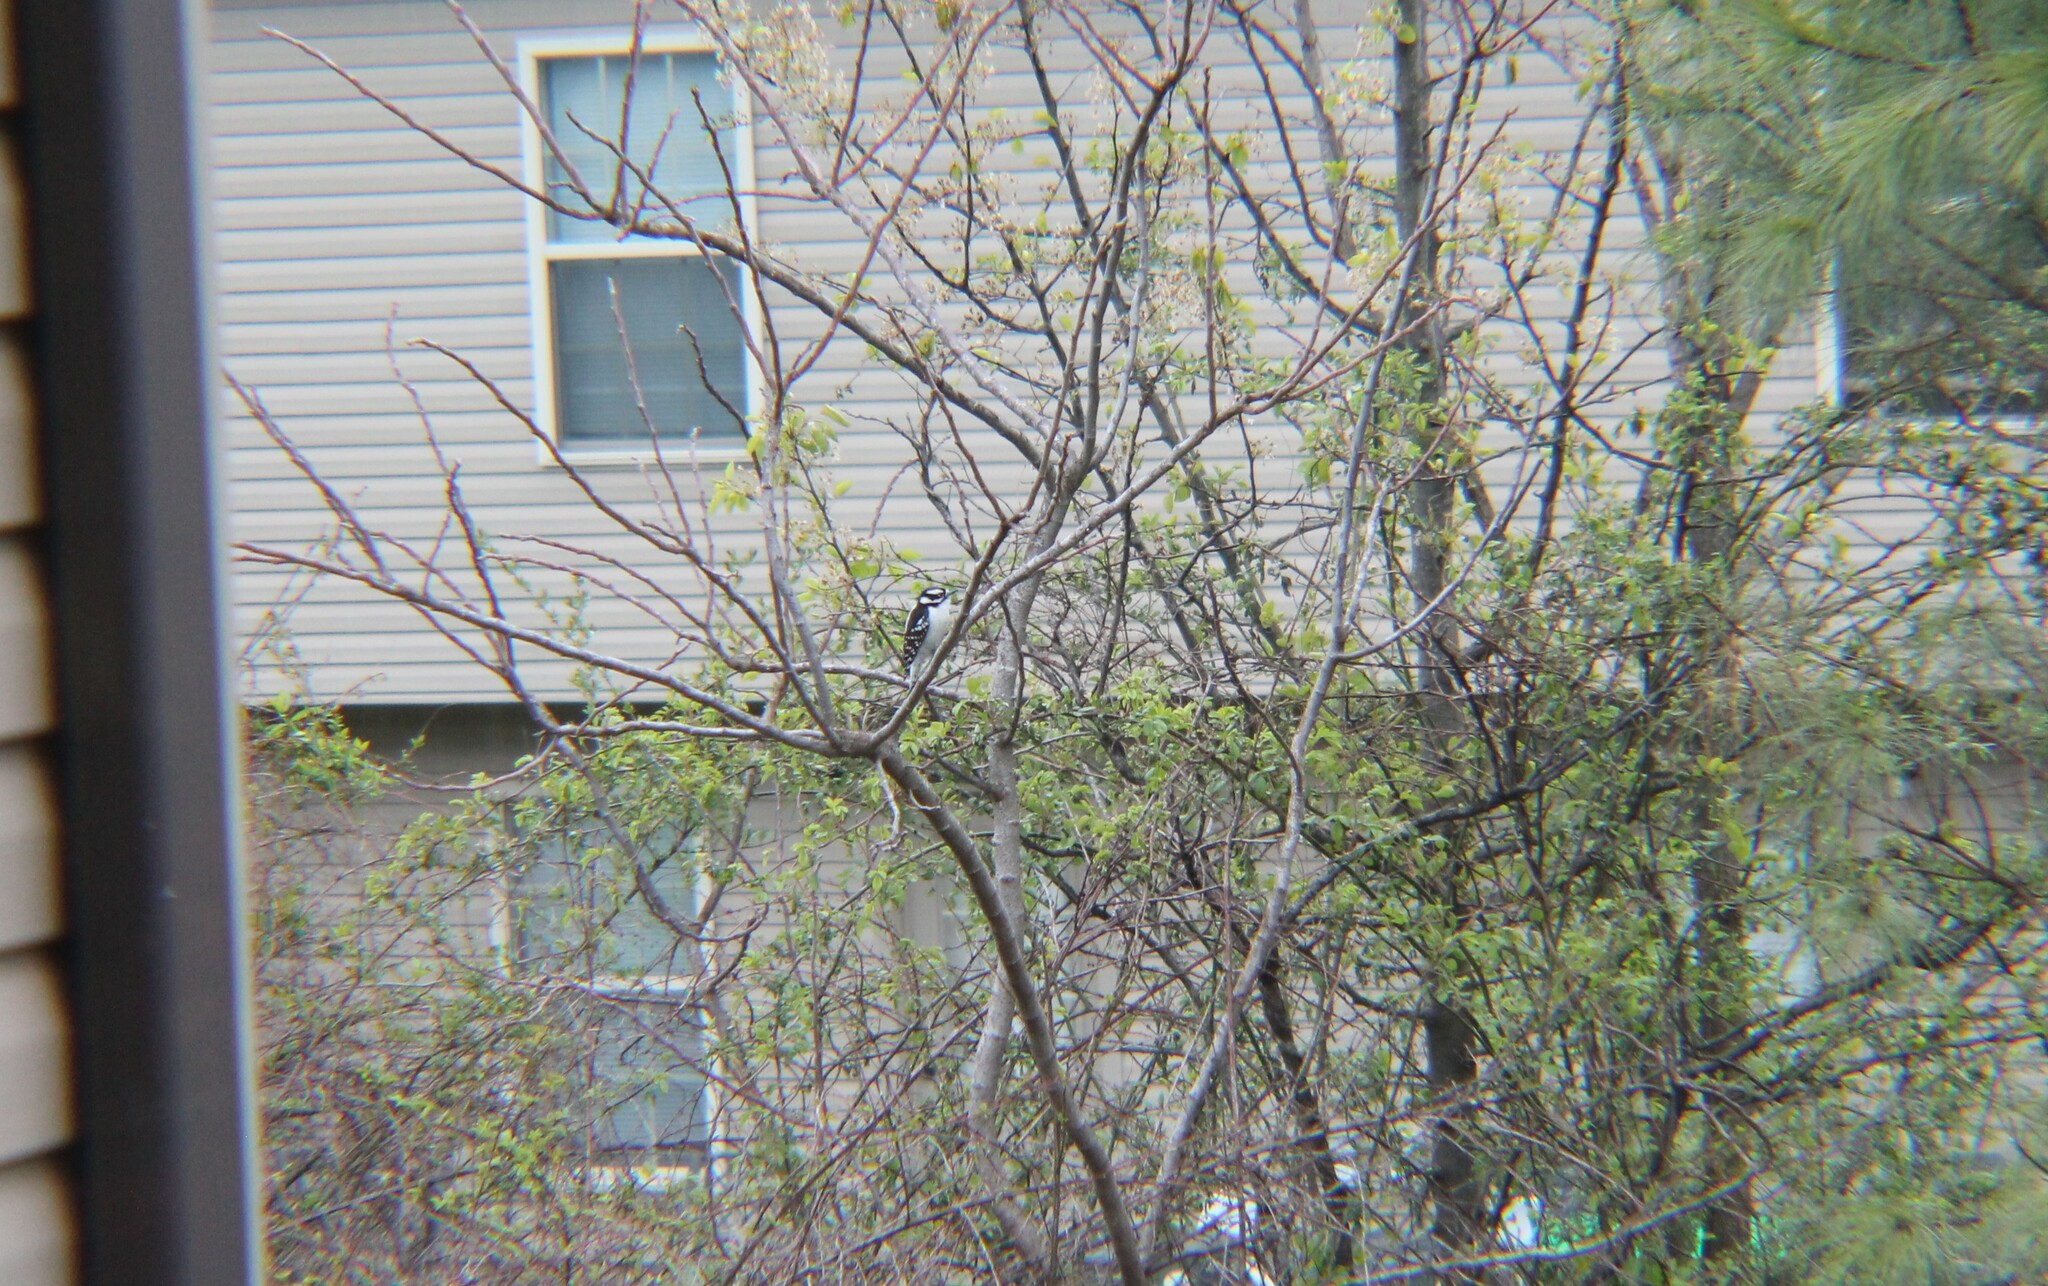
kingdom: Animalia
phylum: Chordata
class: Aves
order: Piciformes
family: Picidae
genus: Dryobates
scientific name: Dryobates pubescens
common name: Downy woodpecker
